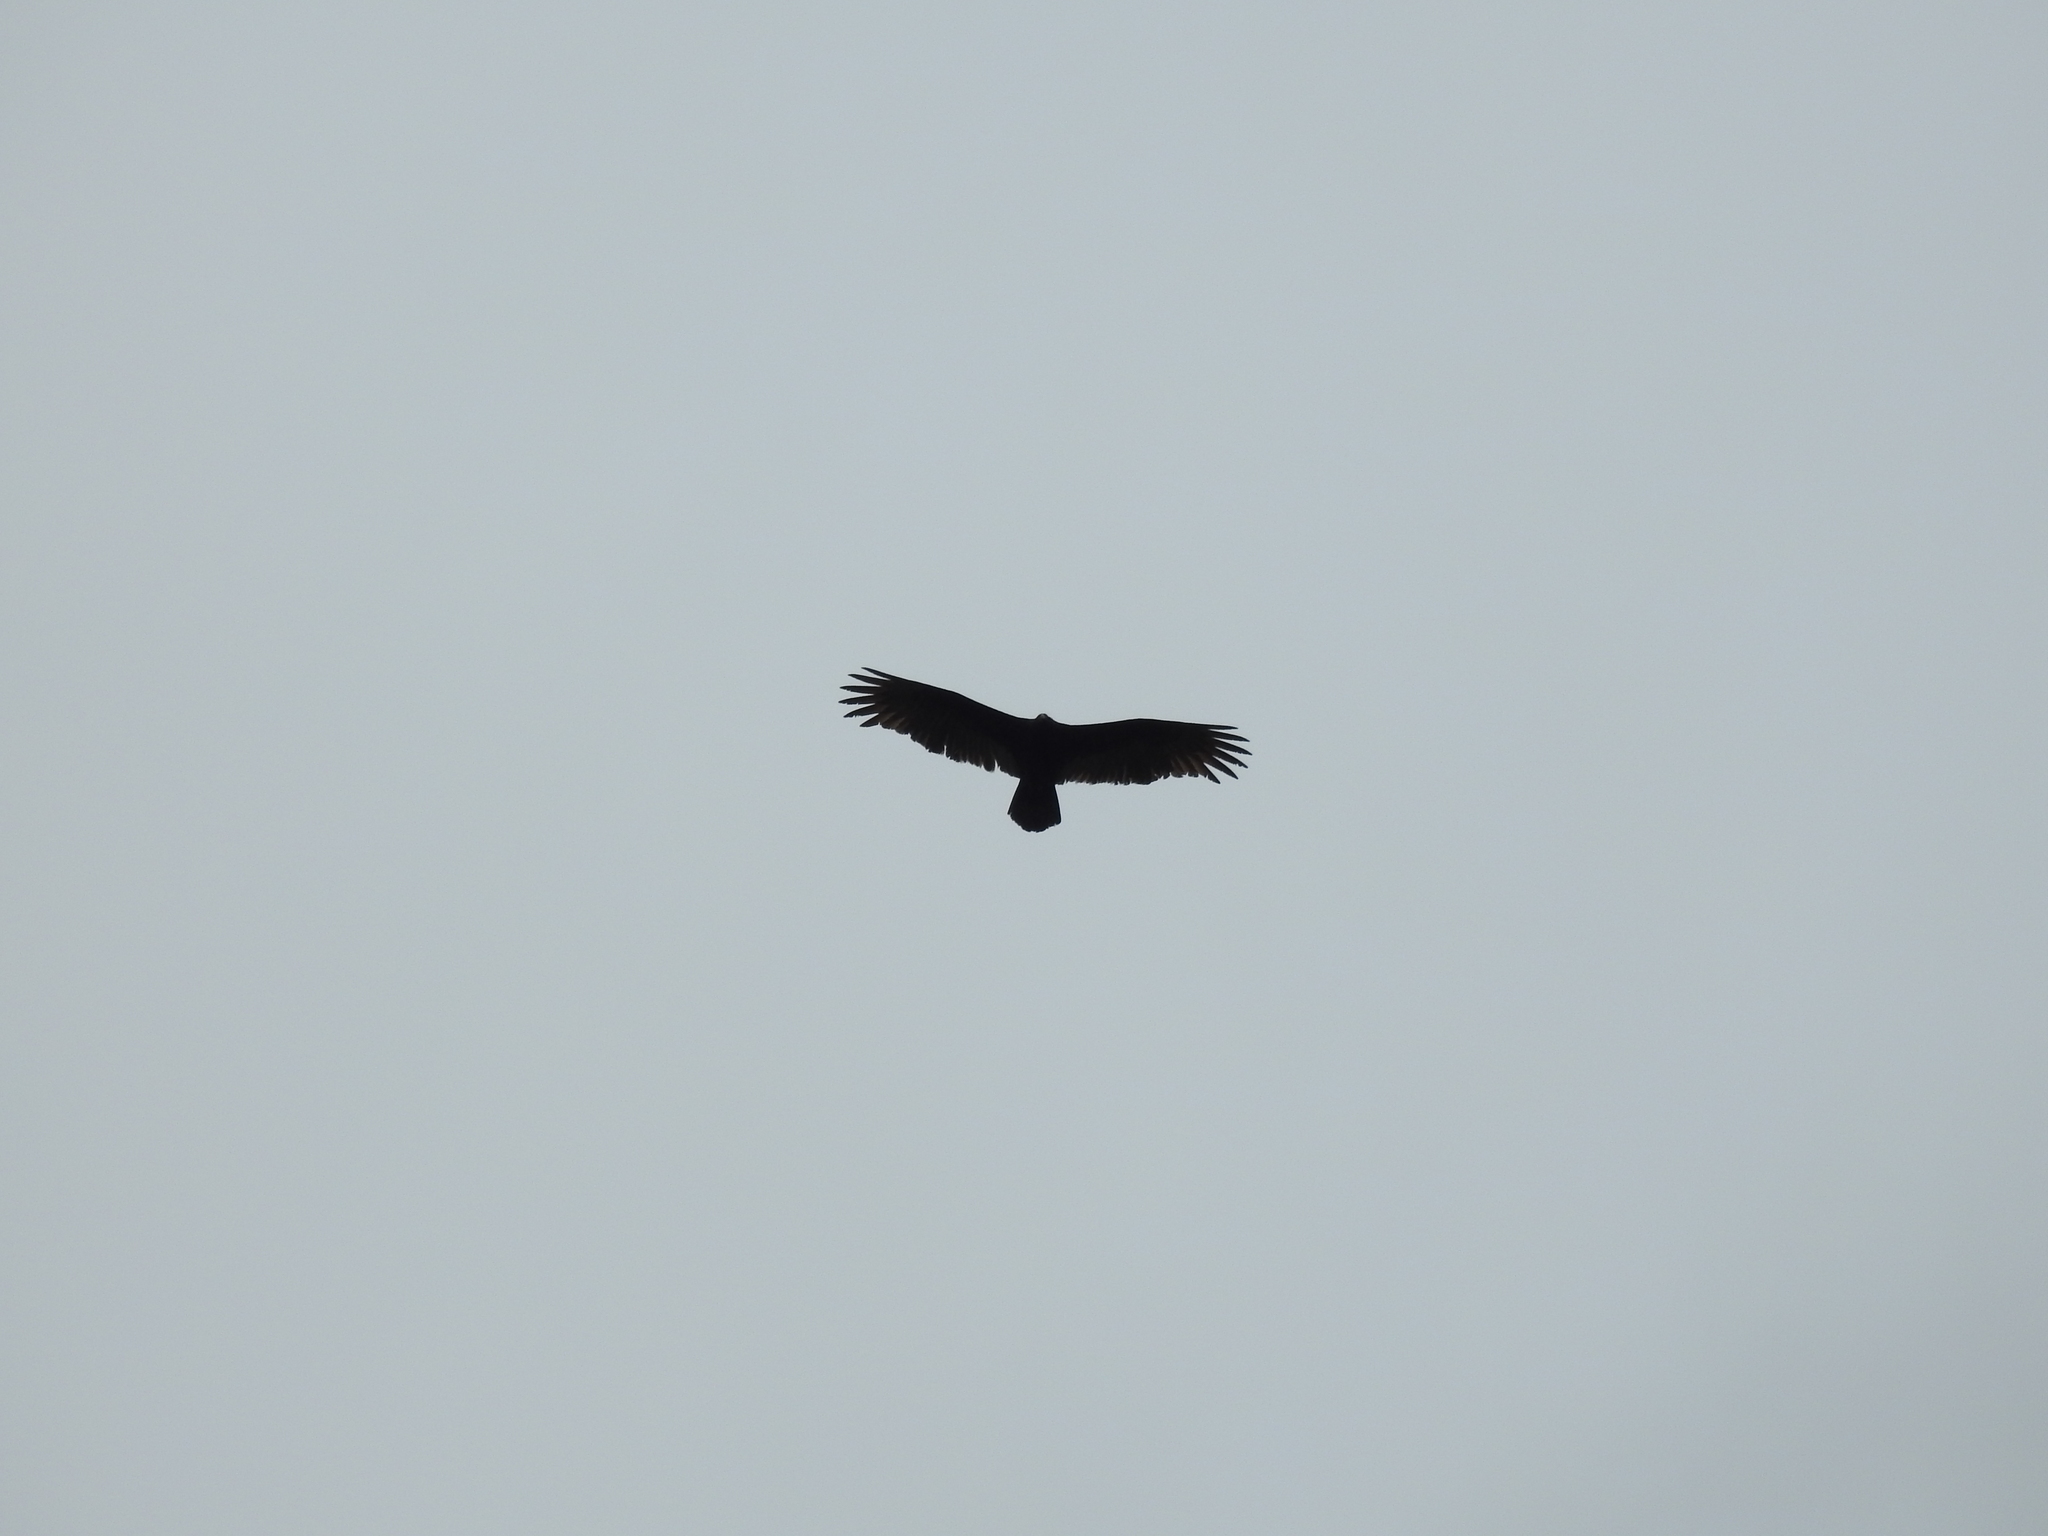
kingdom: Animalia
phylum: Chordata
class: Aves
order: Accipitriformes
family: Cathartidae
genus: Cathartes
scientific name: Cathartes aura
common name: Turkey vulture
